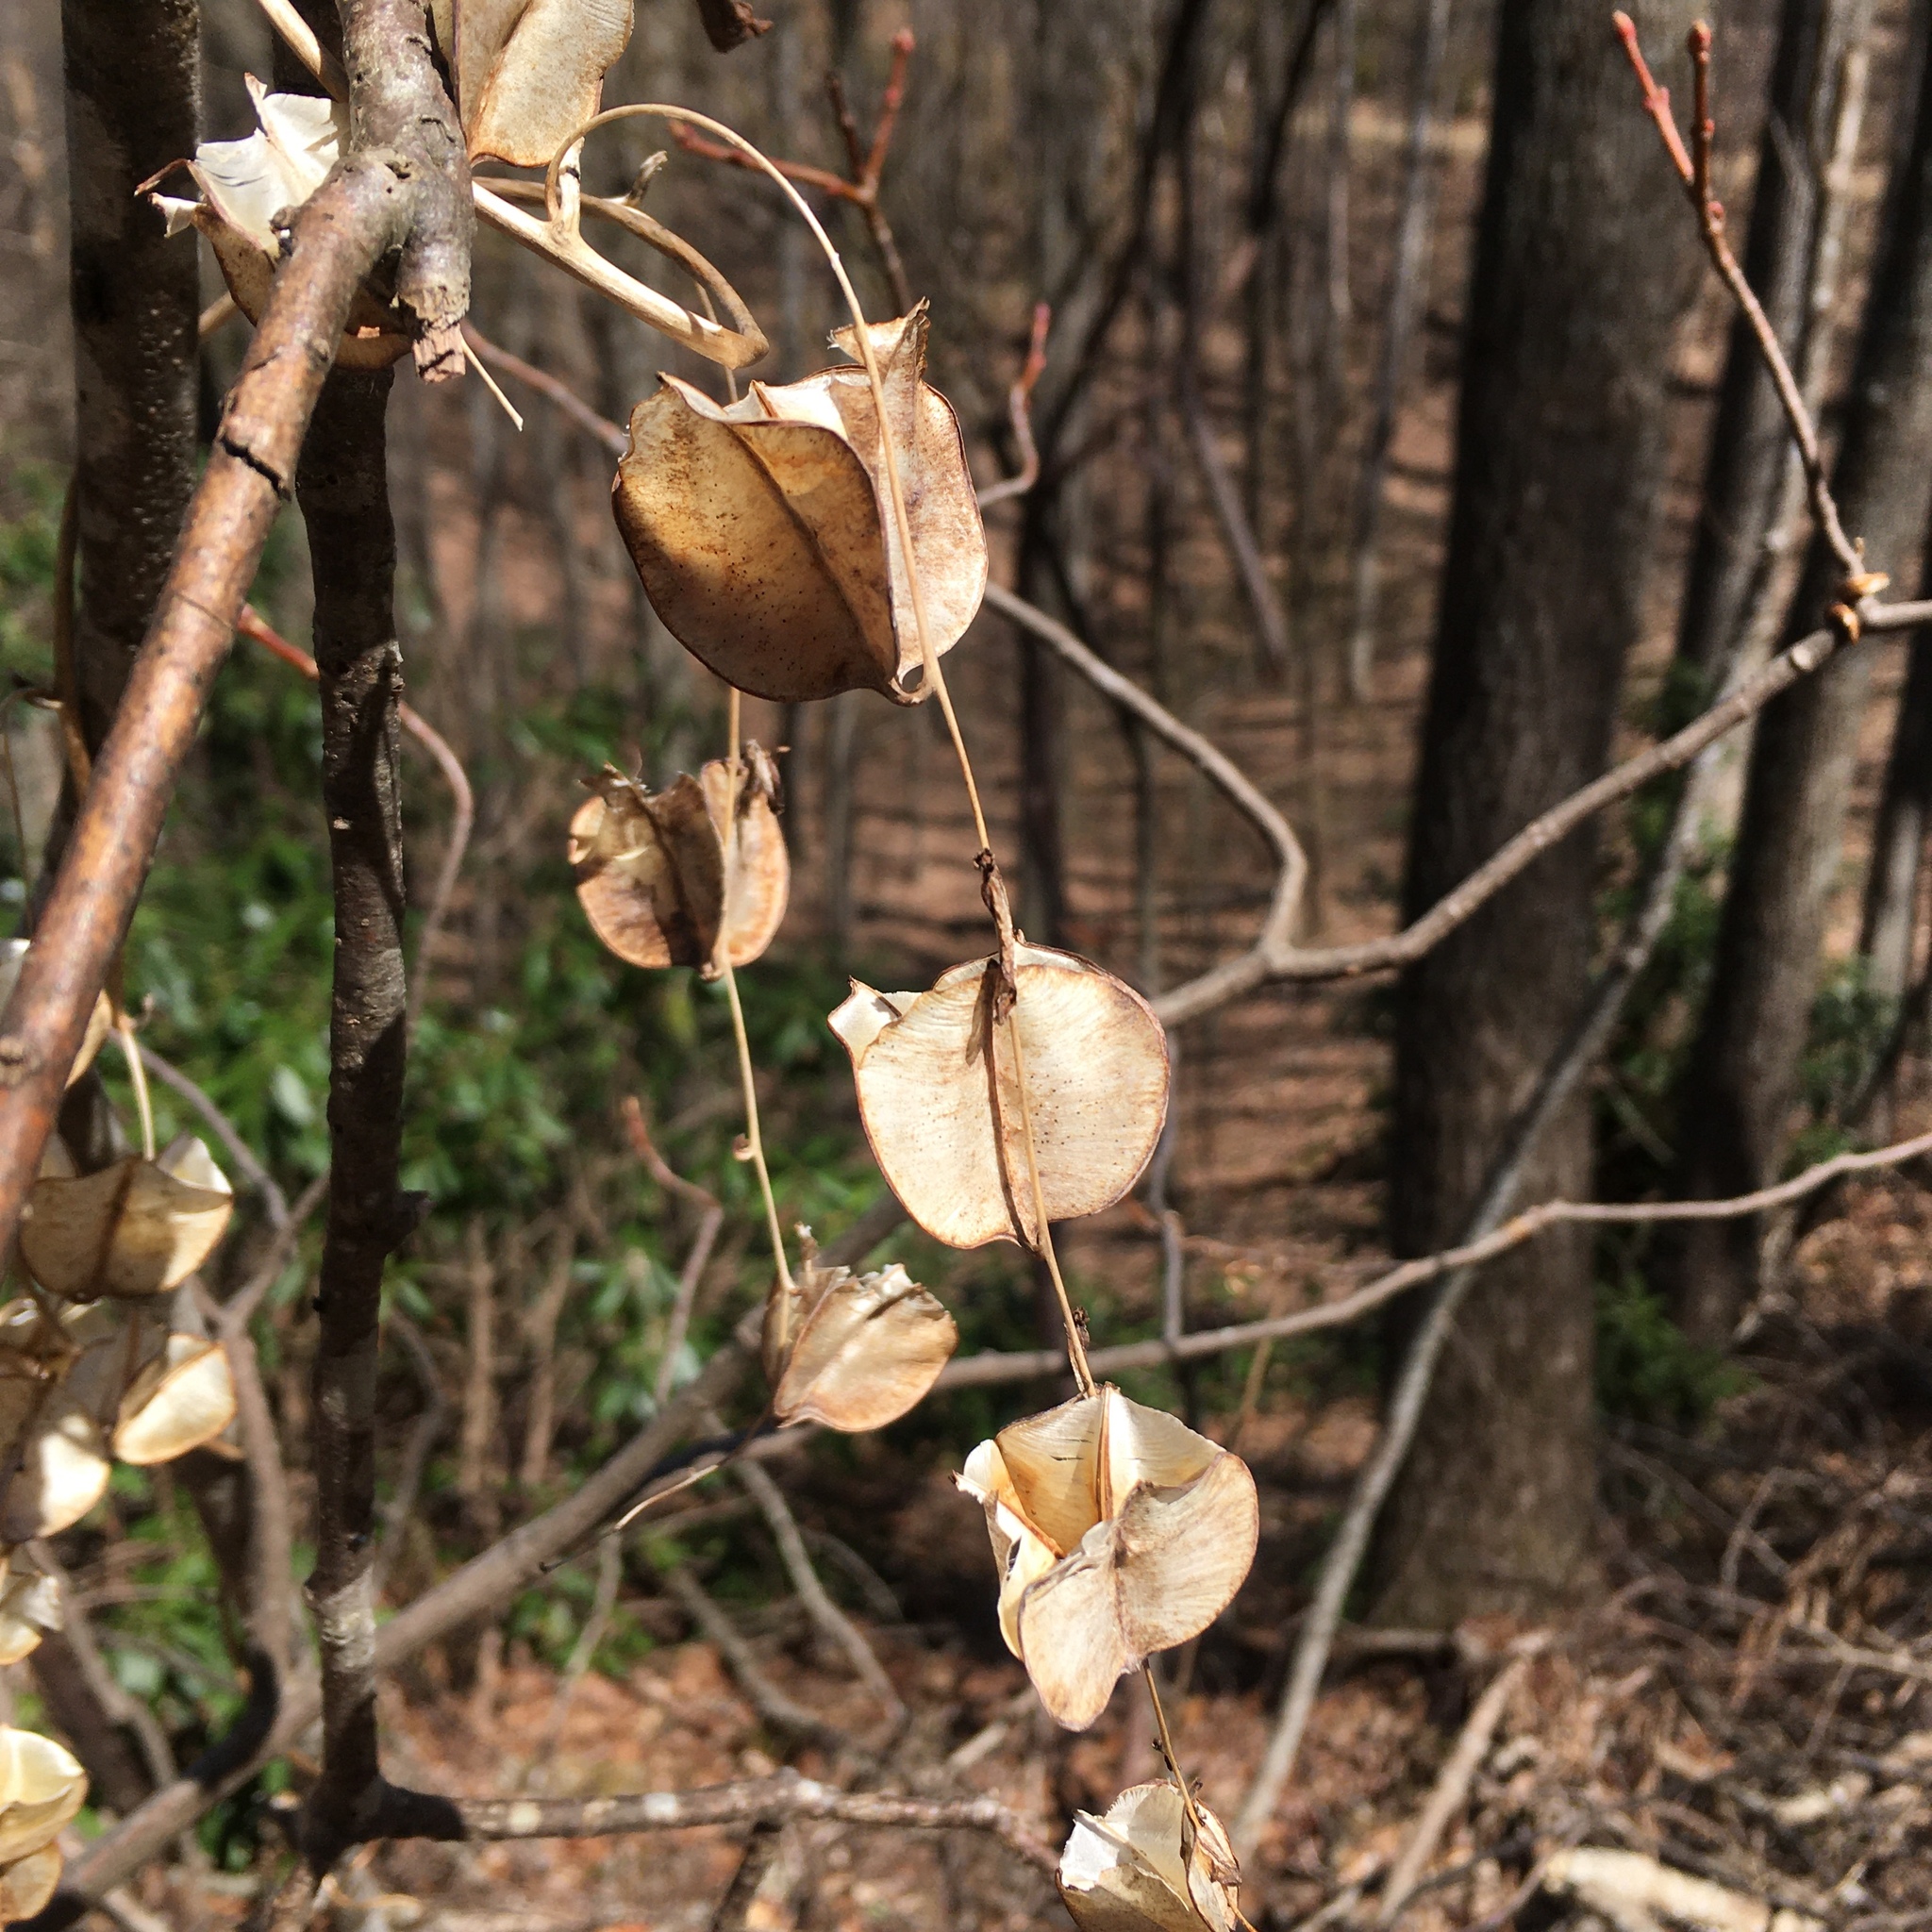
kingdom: Plantae
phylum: Tracheophyta
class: Liliopsida
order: Dioscoreales
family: Dioscoreaceae
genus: Dioscorea
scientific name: Dioscorea villosa
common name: Wild yam
